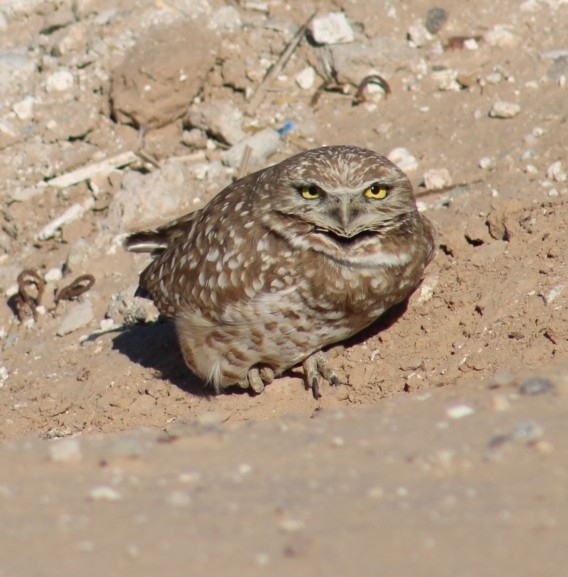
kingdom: Animalia
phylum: Chordata
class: Aves
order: Strigiformes
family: Strigidae
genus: Athene
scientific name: Athene cunicularia
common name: Burrowing owl
